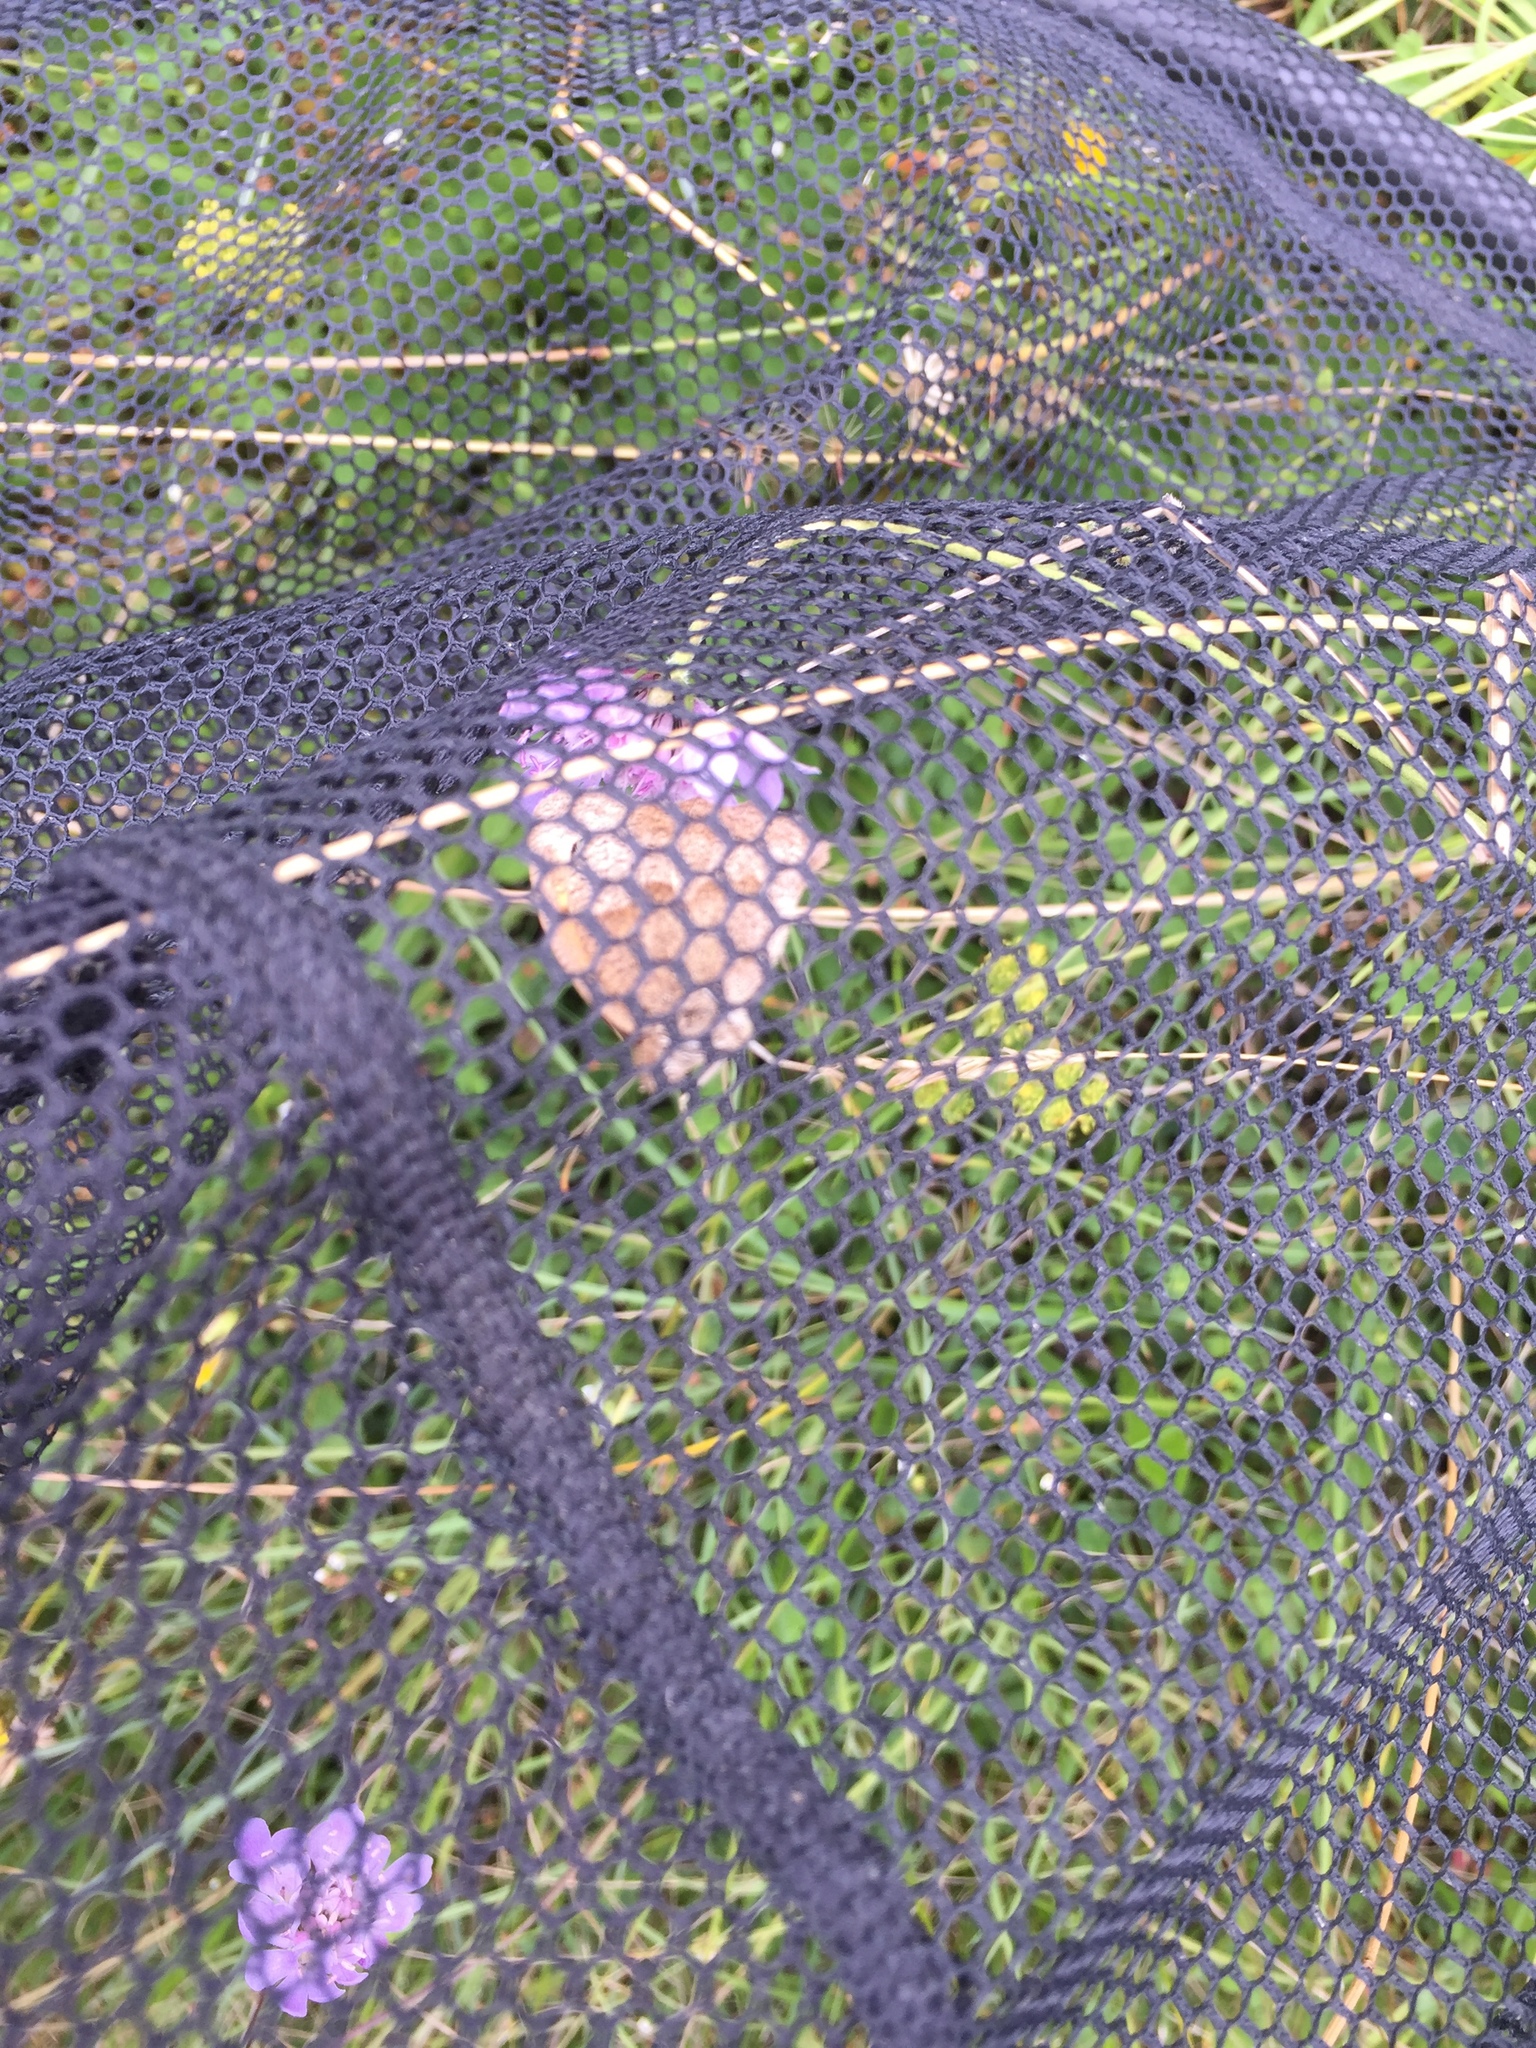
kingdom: Animalia
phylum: Arthropoda
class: Insecta
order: Lepidoptera
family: Nymphalidae
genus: Maniola
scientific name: Maniola jurtina
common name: Meadow brown
